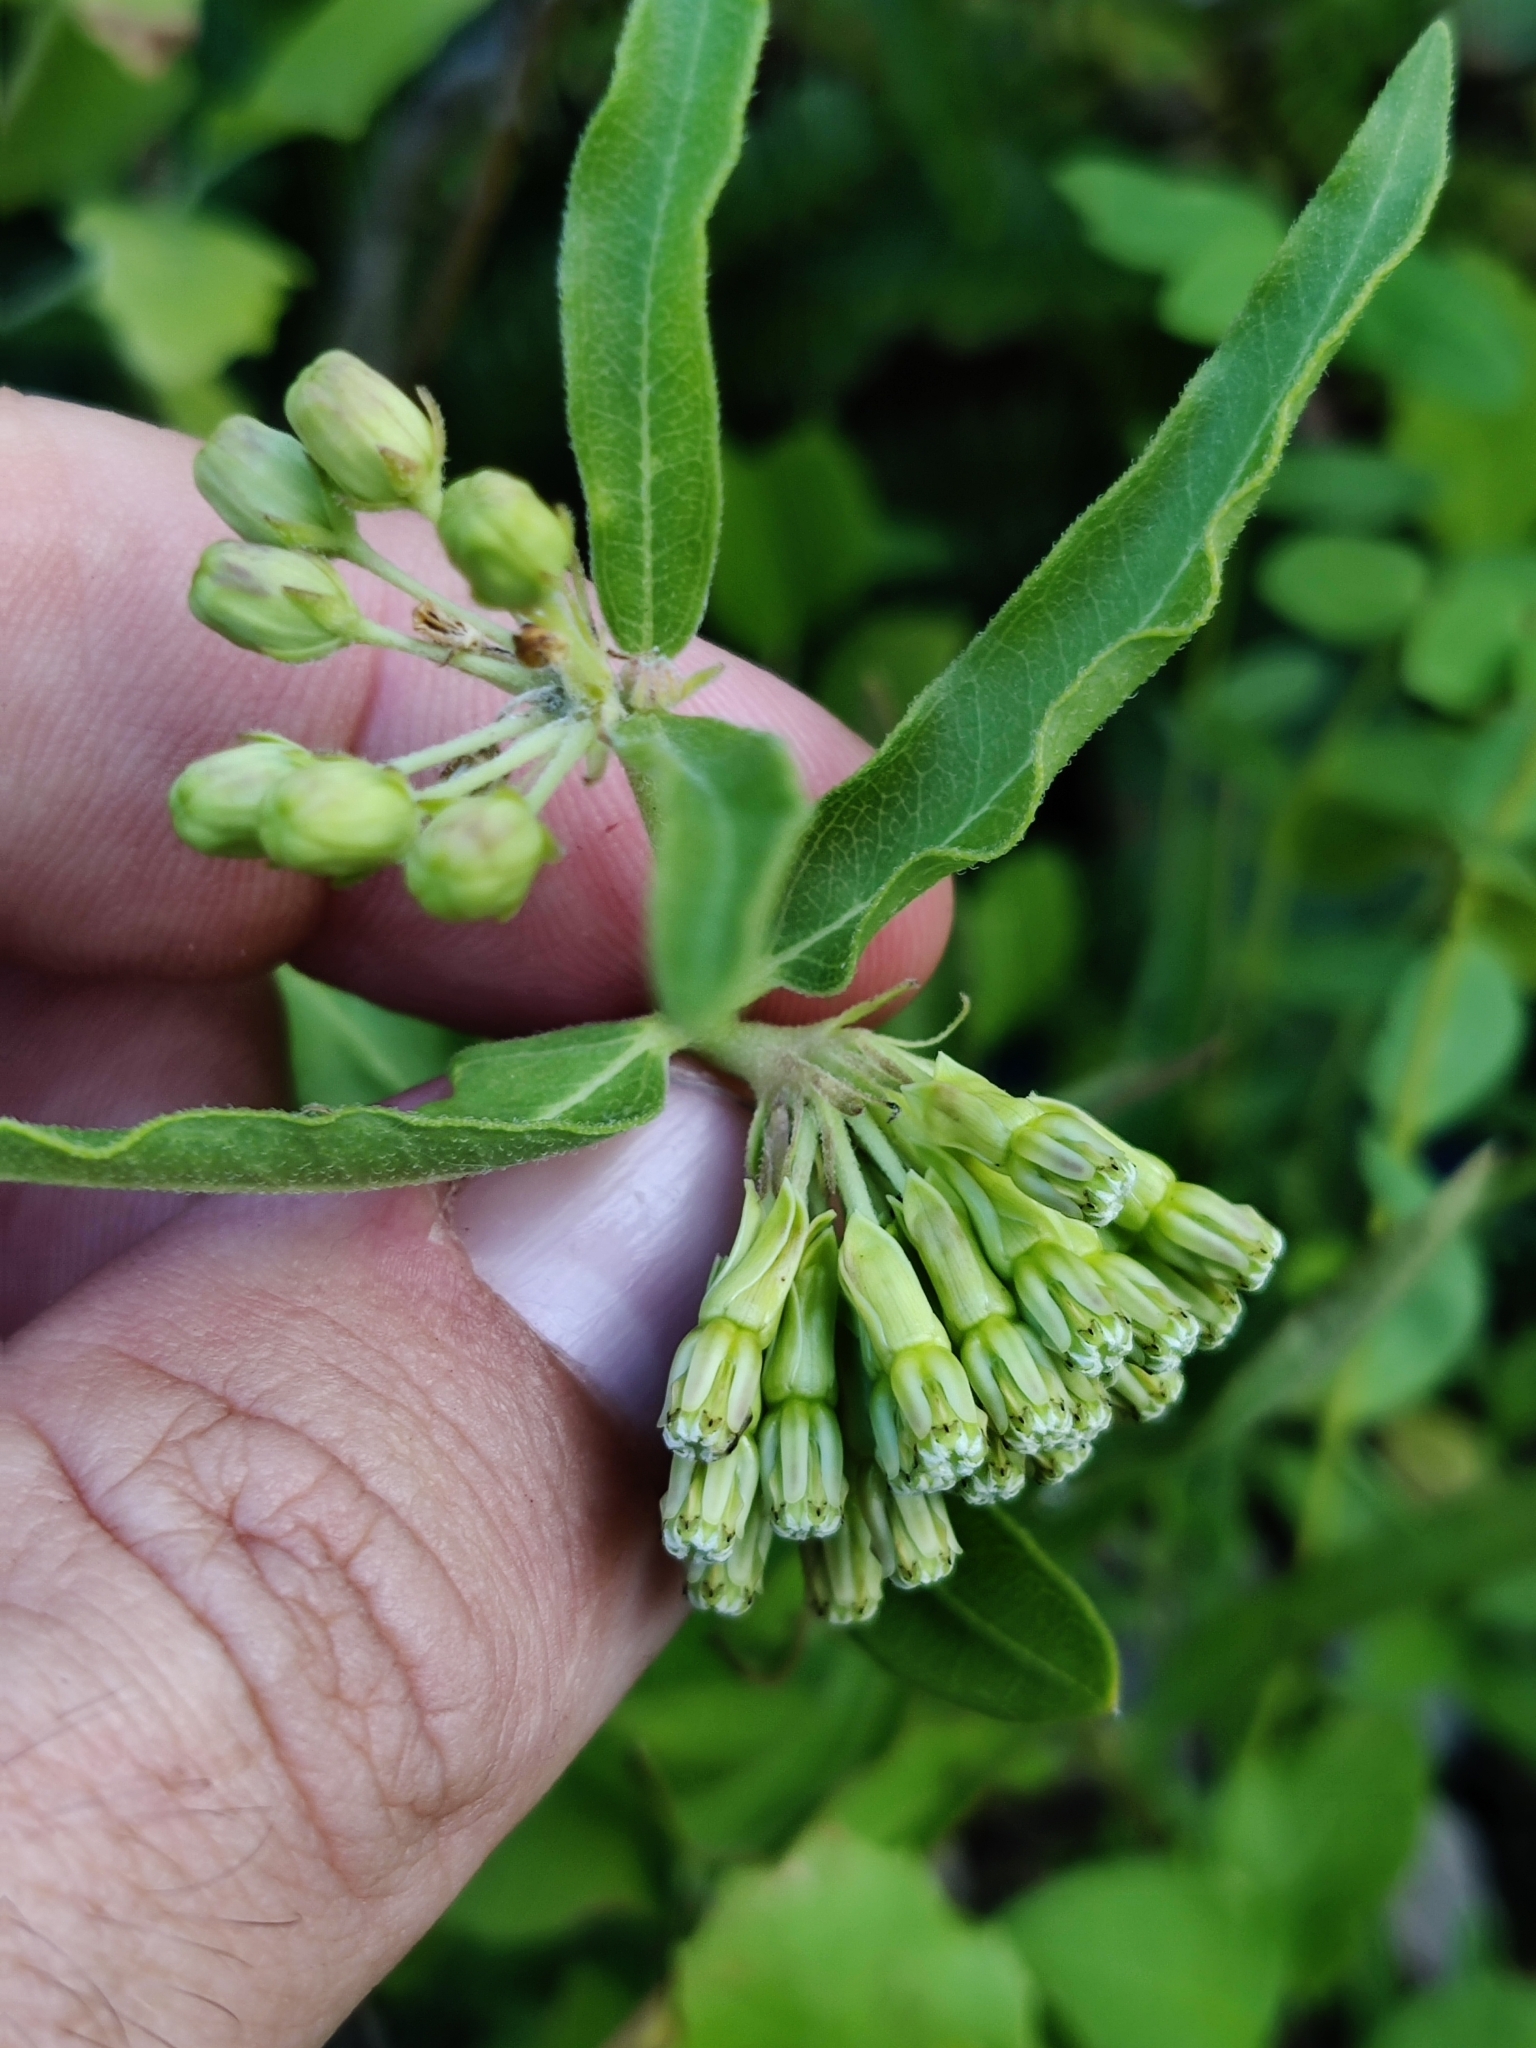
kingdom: Plantae
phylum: Tracheophyta
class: Magnoliopsida
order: Gentianales
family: Apocynaceae
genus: Asclepias
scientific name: Asclepias viridiflora
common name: Green comet milkweed
